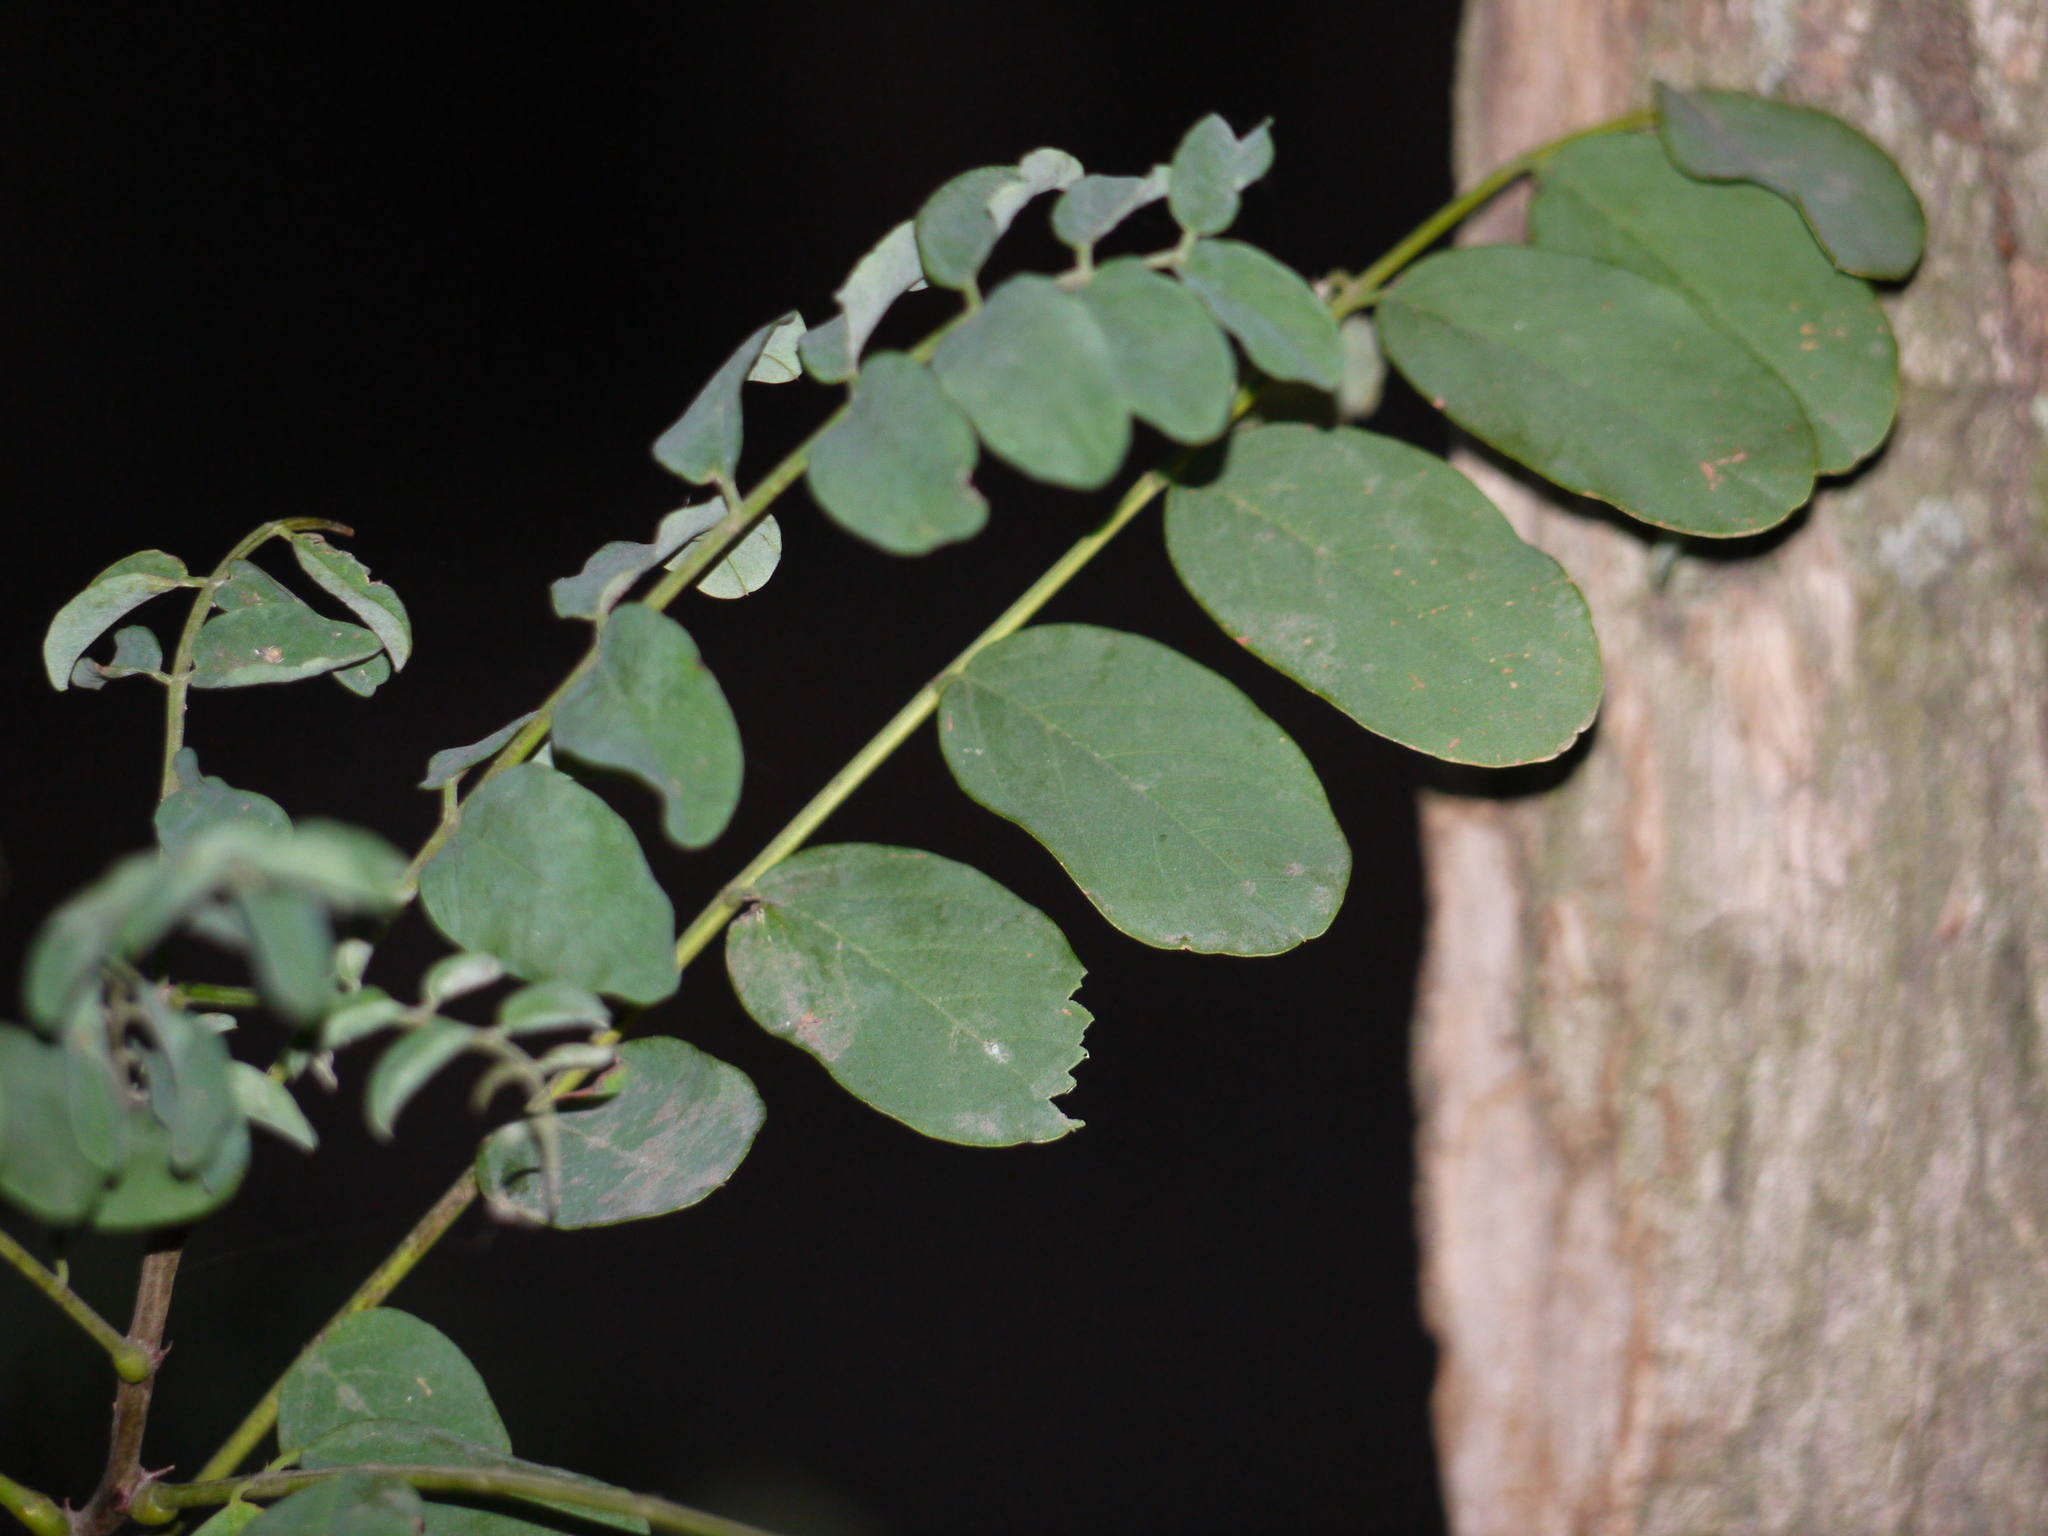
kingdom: Plantae
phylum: Tracheophyta
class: Magnoliopsida
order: Fabales
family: Fabaceae
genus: Robinia
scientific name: Robinia pseudoacacia
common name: Black locust
